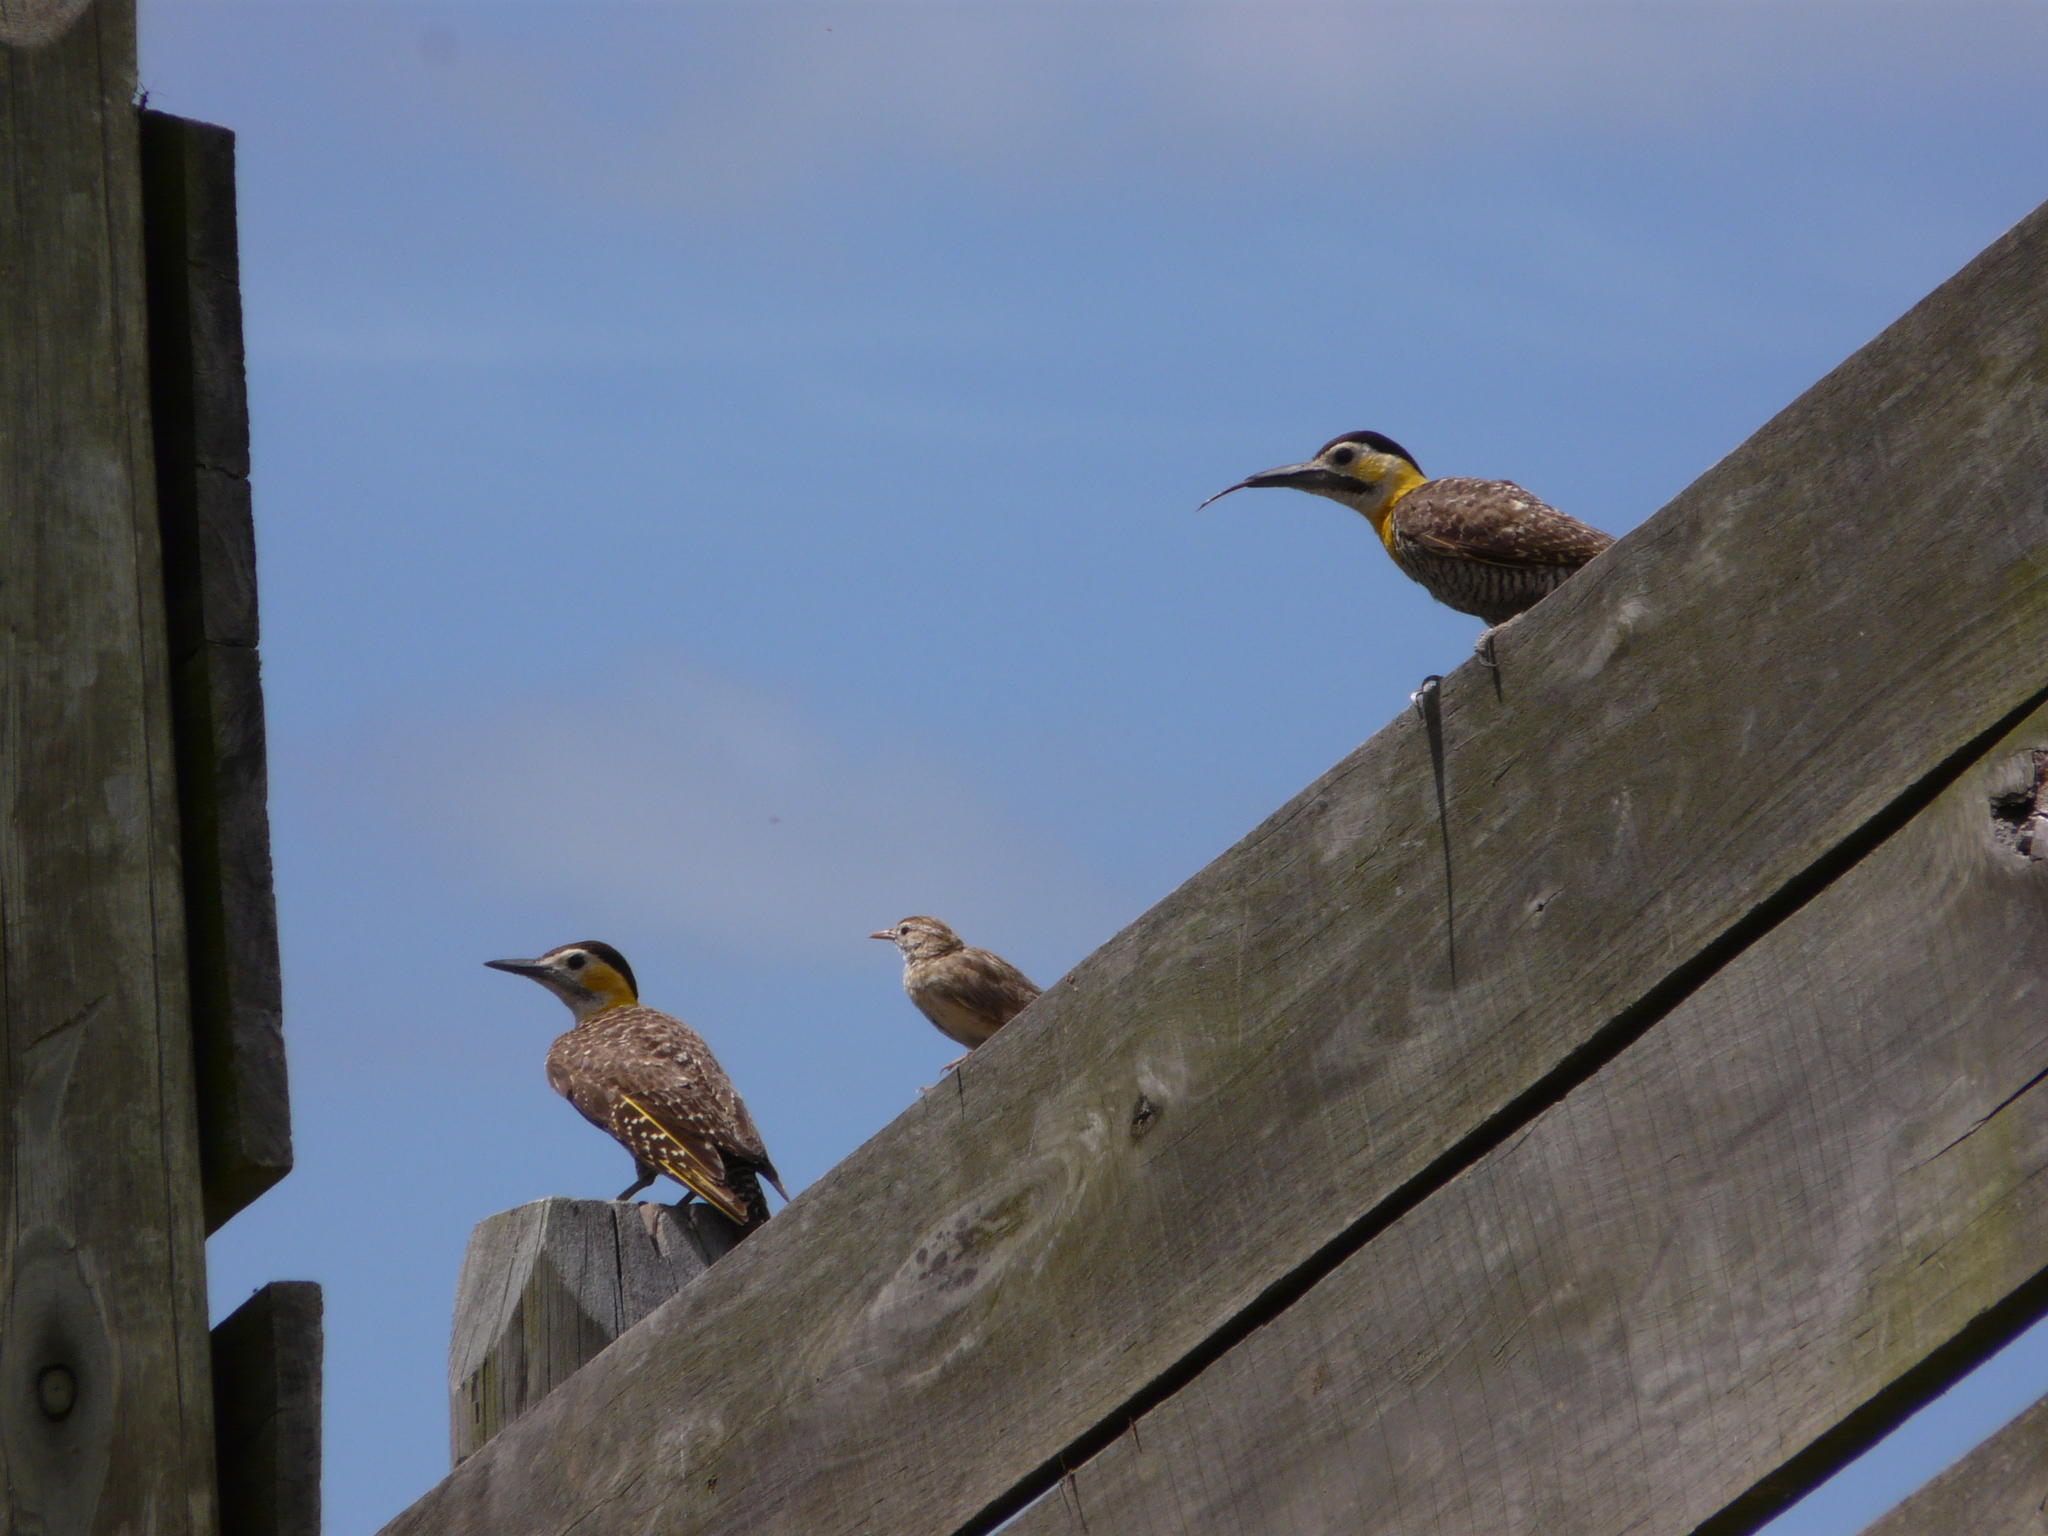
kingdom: Animalia
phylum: Chordata
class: Aves
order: Piciformes
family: Picidae
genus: Colaptes
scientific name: Colaptes campestris
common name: Campo flicker
